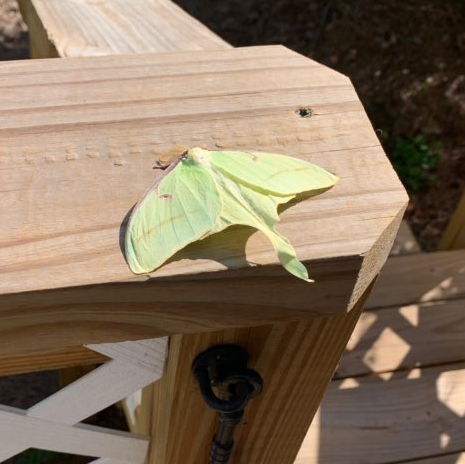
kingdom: Animalia
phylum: Arthropoda
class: Insecta
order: Lepidoptera
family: Saturniidae
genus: Actias
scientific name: Actias luna
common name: Luna moth
